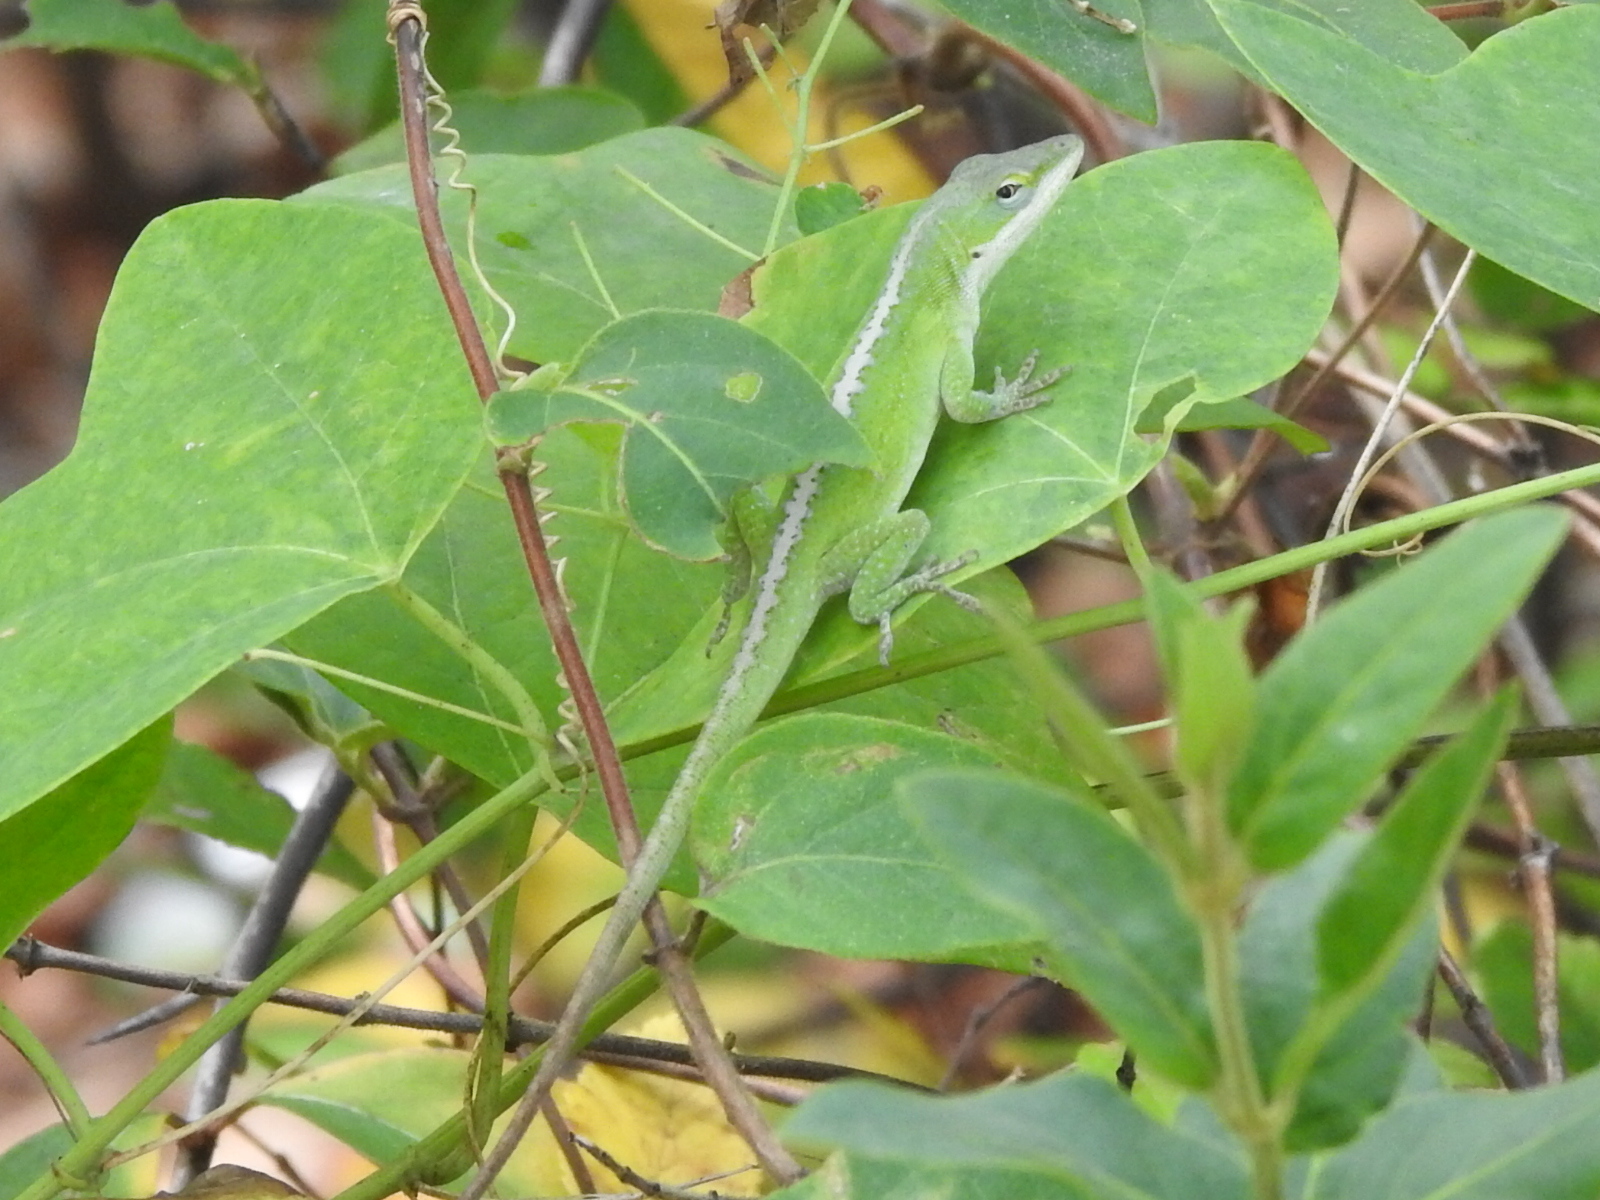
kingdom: Animalia
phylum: Chordata
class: Squamata
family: Dactyloidae
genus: Anolis
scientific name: Anolis carolinensis
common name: Green anole
